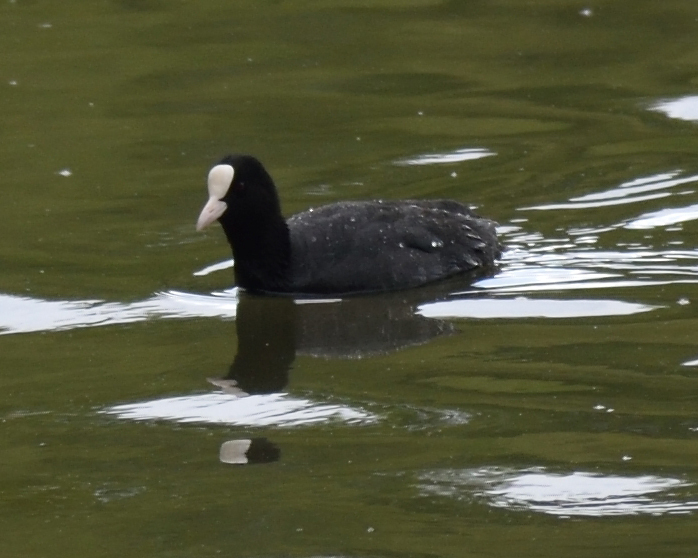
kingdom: Animalia
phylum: Chordata
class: Aves
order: Gruiformes
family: Rallidae
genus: Fulica
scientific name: Fulica atra
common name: Eurasian coot
